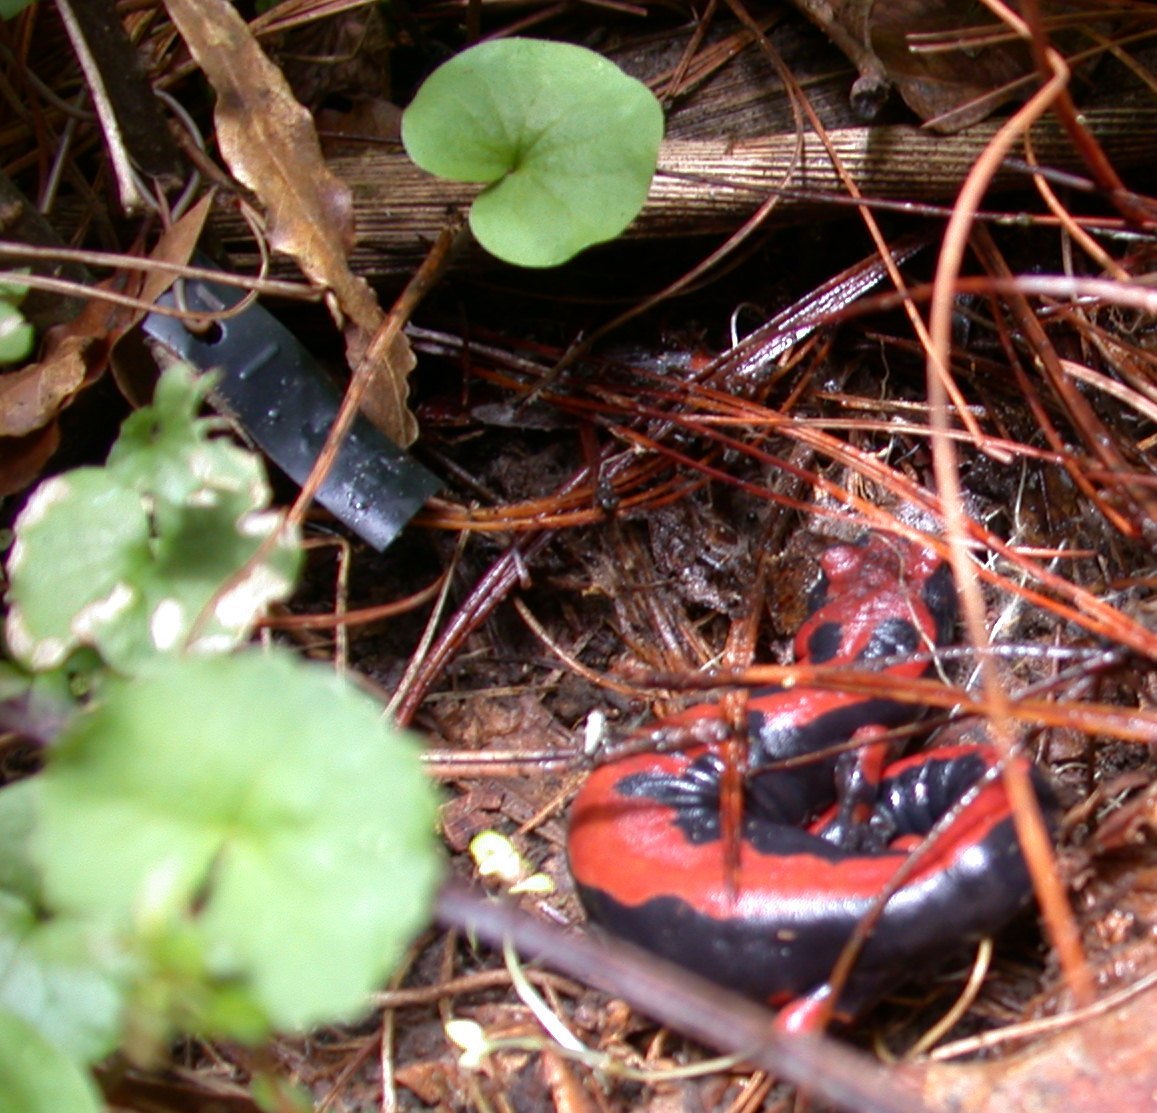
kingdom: Animalia
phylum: Chordata
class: Amphibia
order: Caudata
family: Plethodontidae
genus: Bolitoglossa
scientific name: Bolitoglossa lincolni
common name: Lincoln's mushroomtongue salamander
